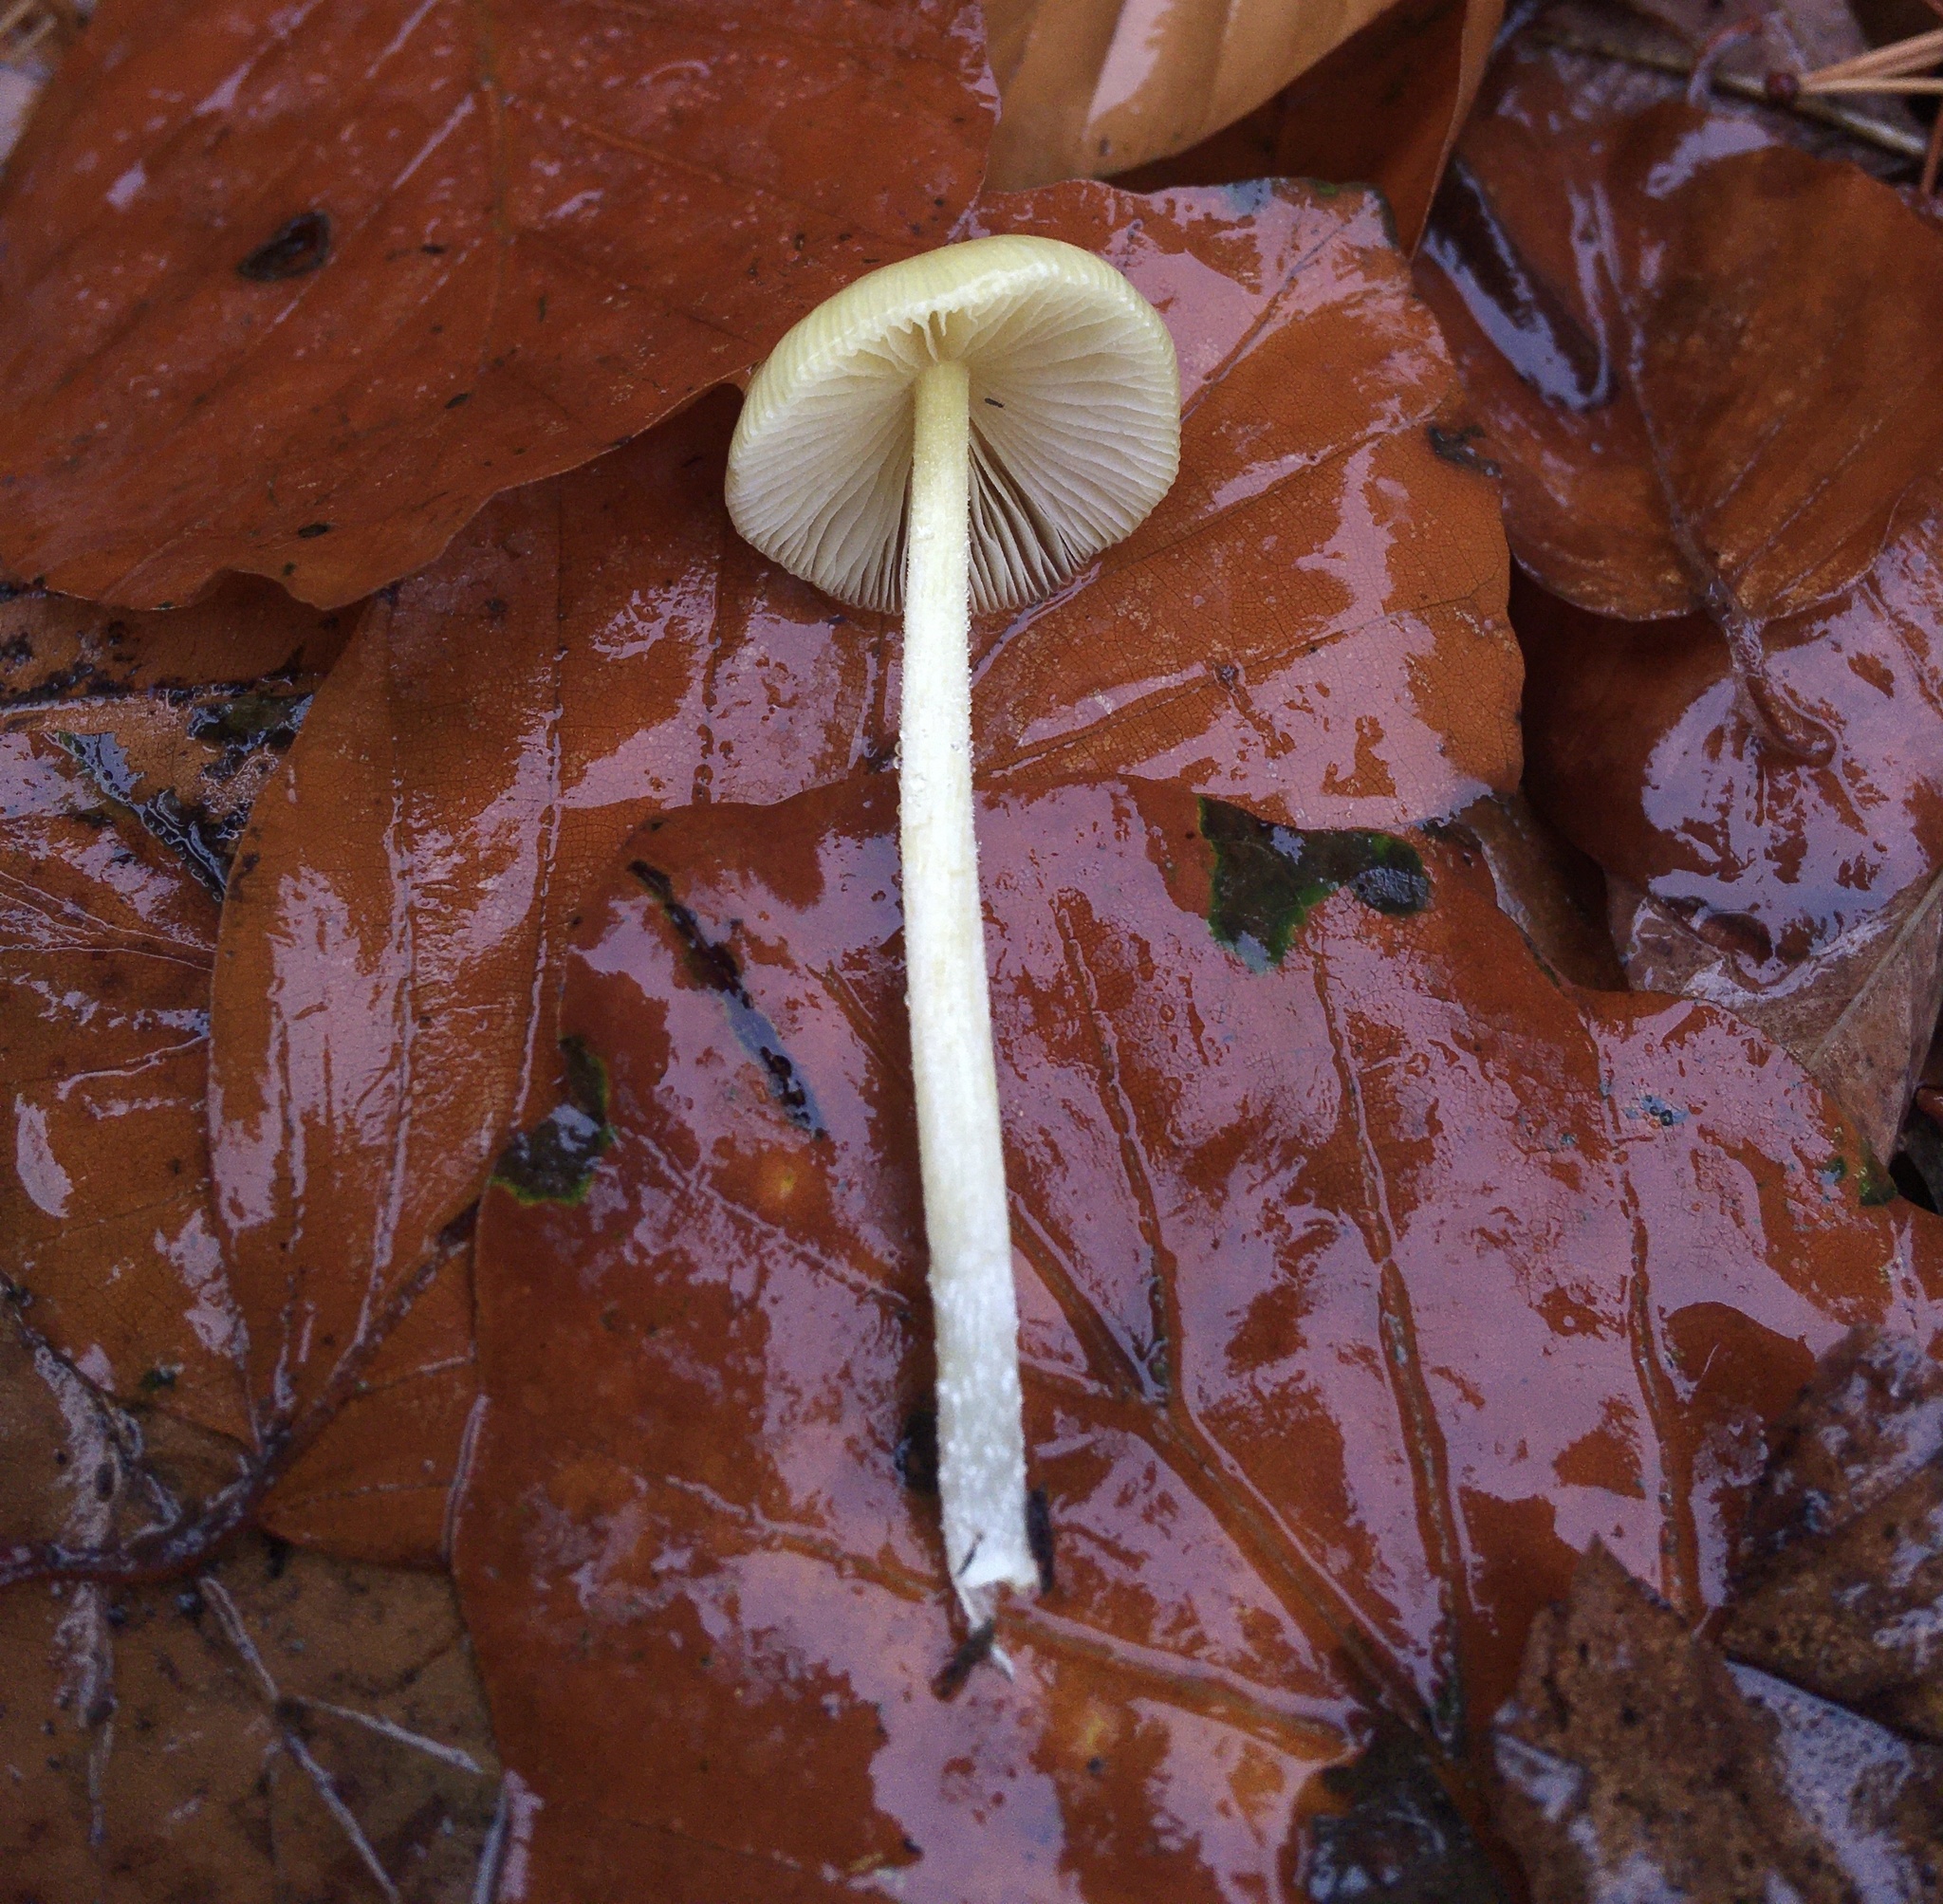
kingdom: Fungi
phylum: Basidiomycota
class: Agaricomycetes
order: Agaricales
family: Bolbitiaceae
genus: Bolbitius
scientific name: Bolbitius titubans
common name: Yellow fieldcap
